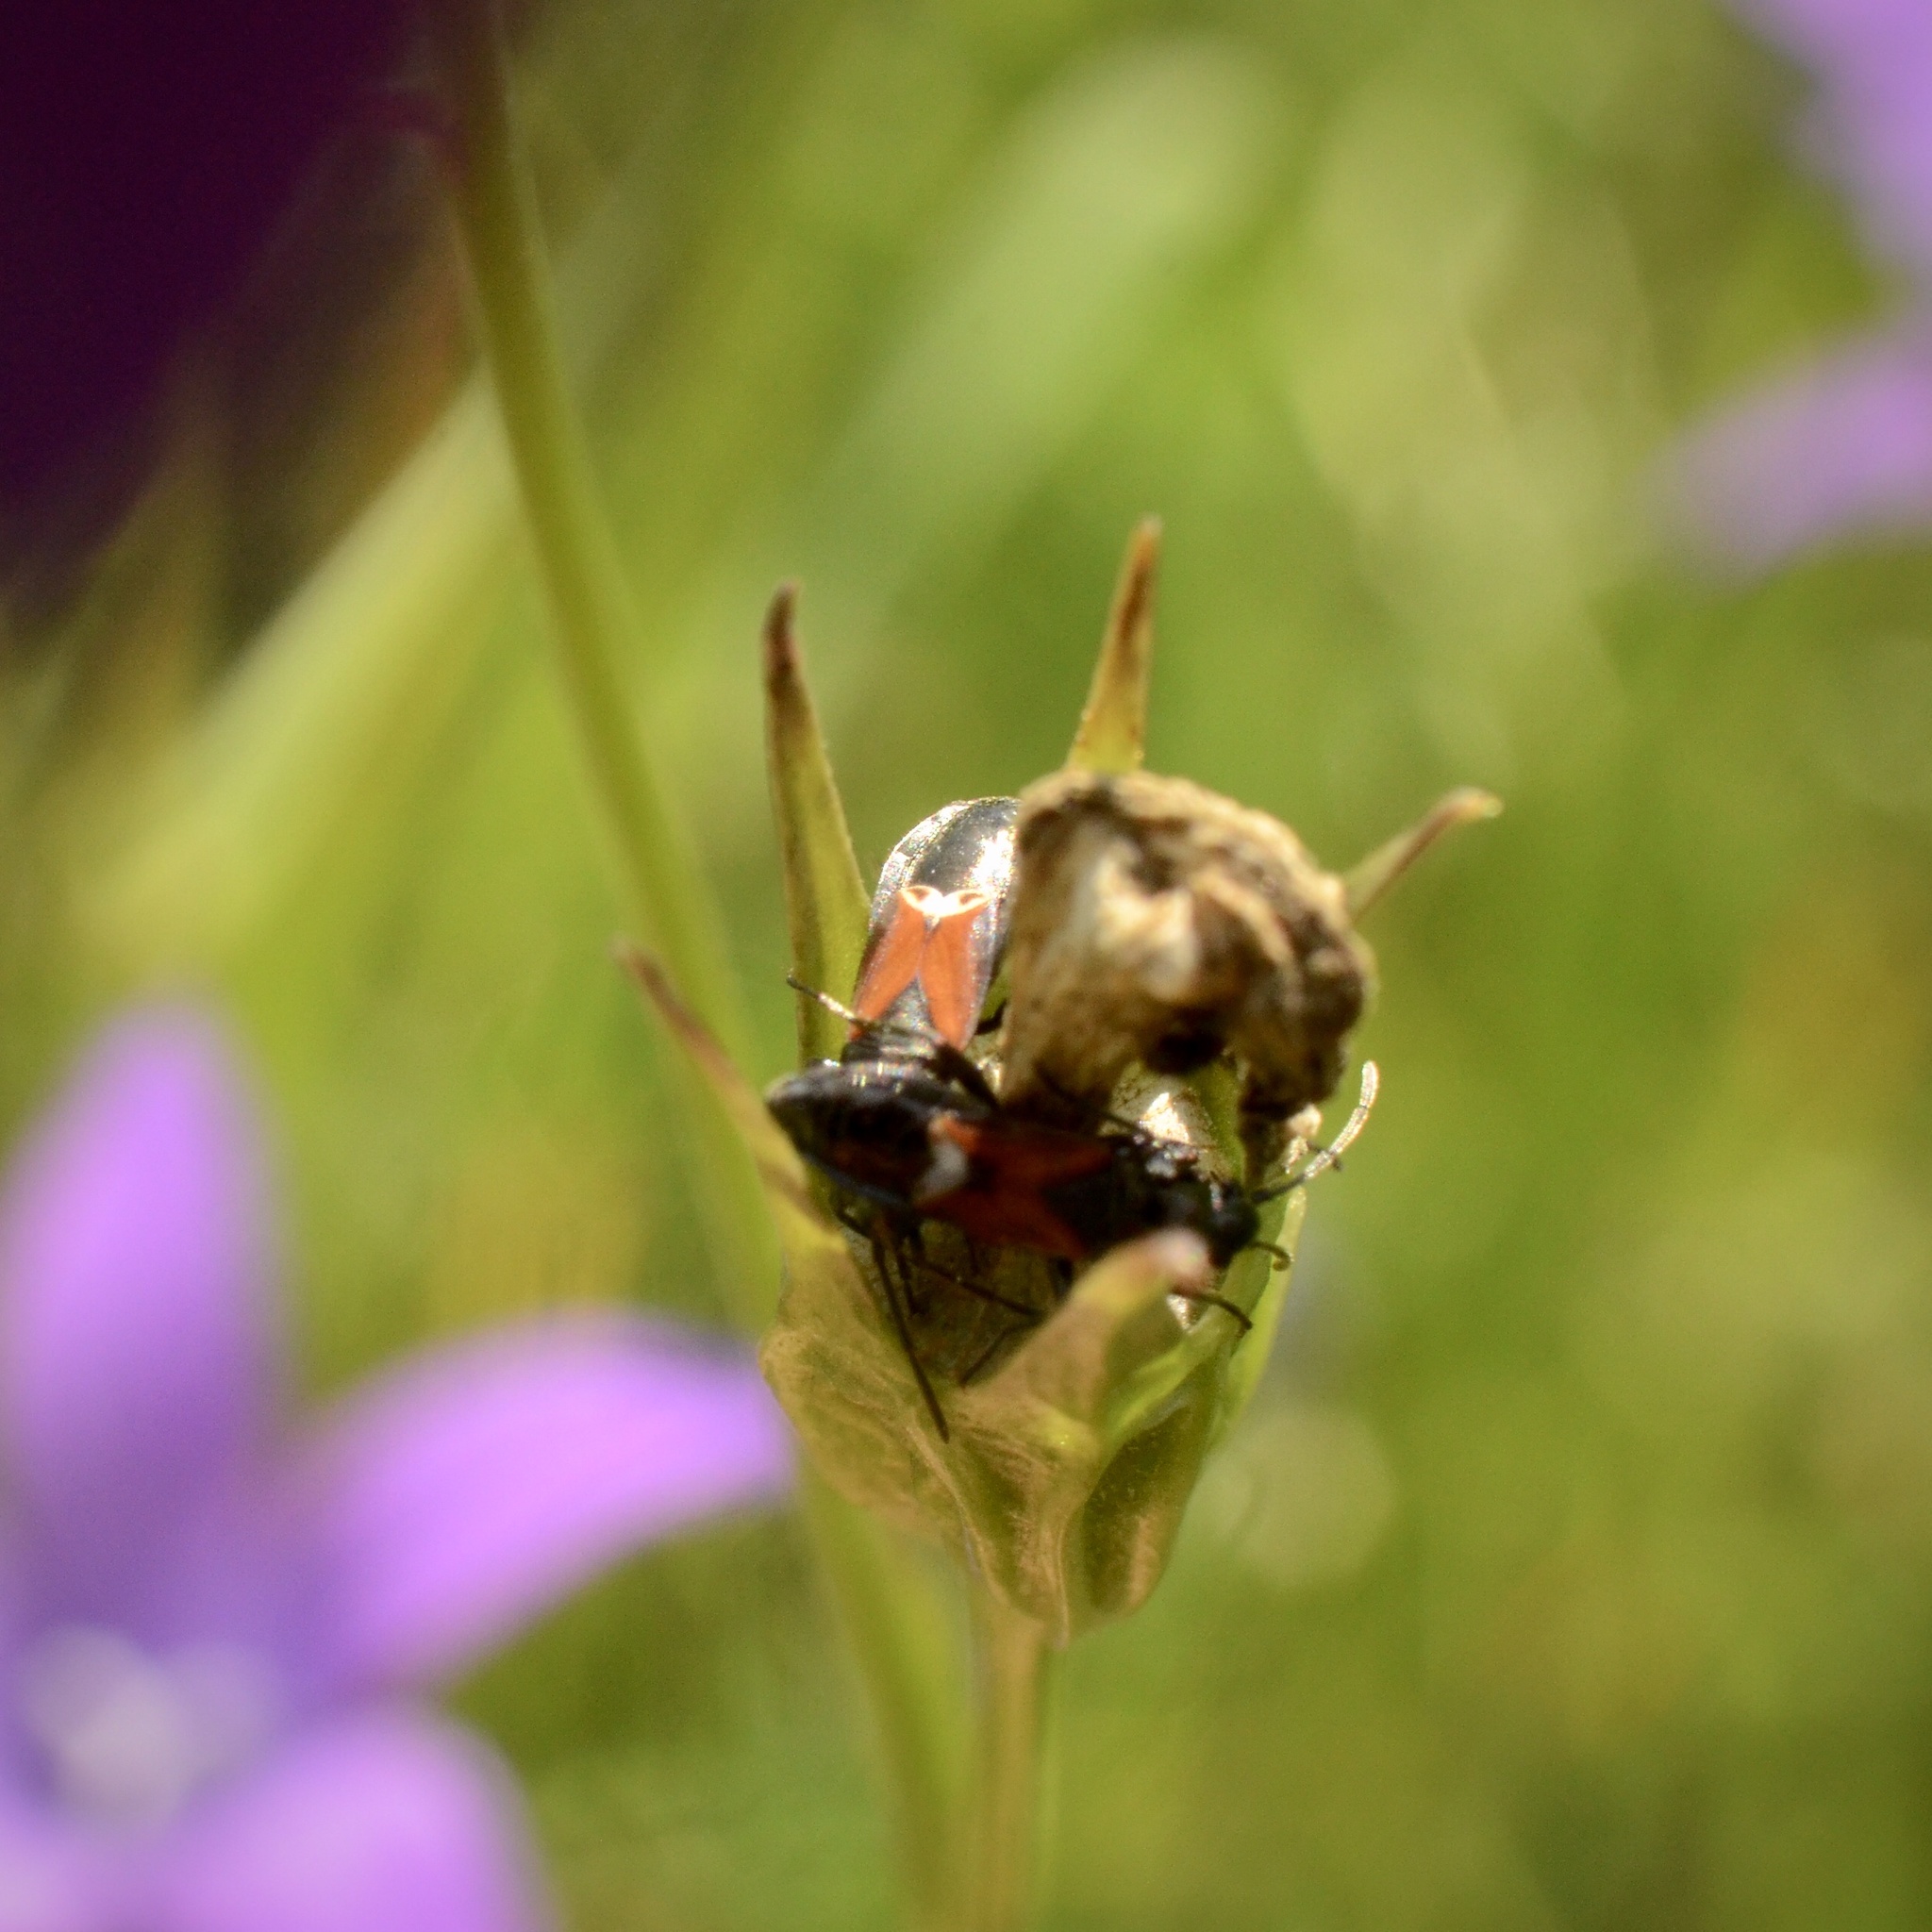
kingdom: Animalia
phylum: Arthropoda
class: Insecta
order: Hemiptera
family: Rhyparochromidae
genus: Pterotmetus
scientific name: Pterotmetus staphyliniformis
